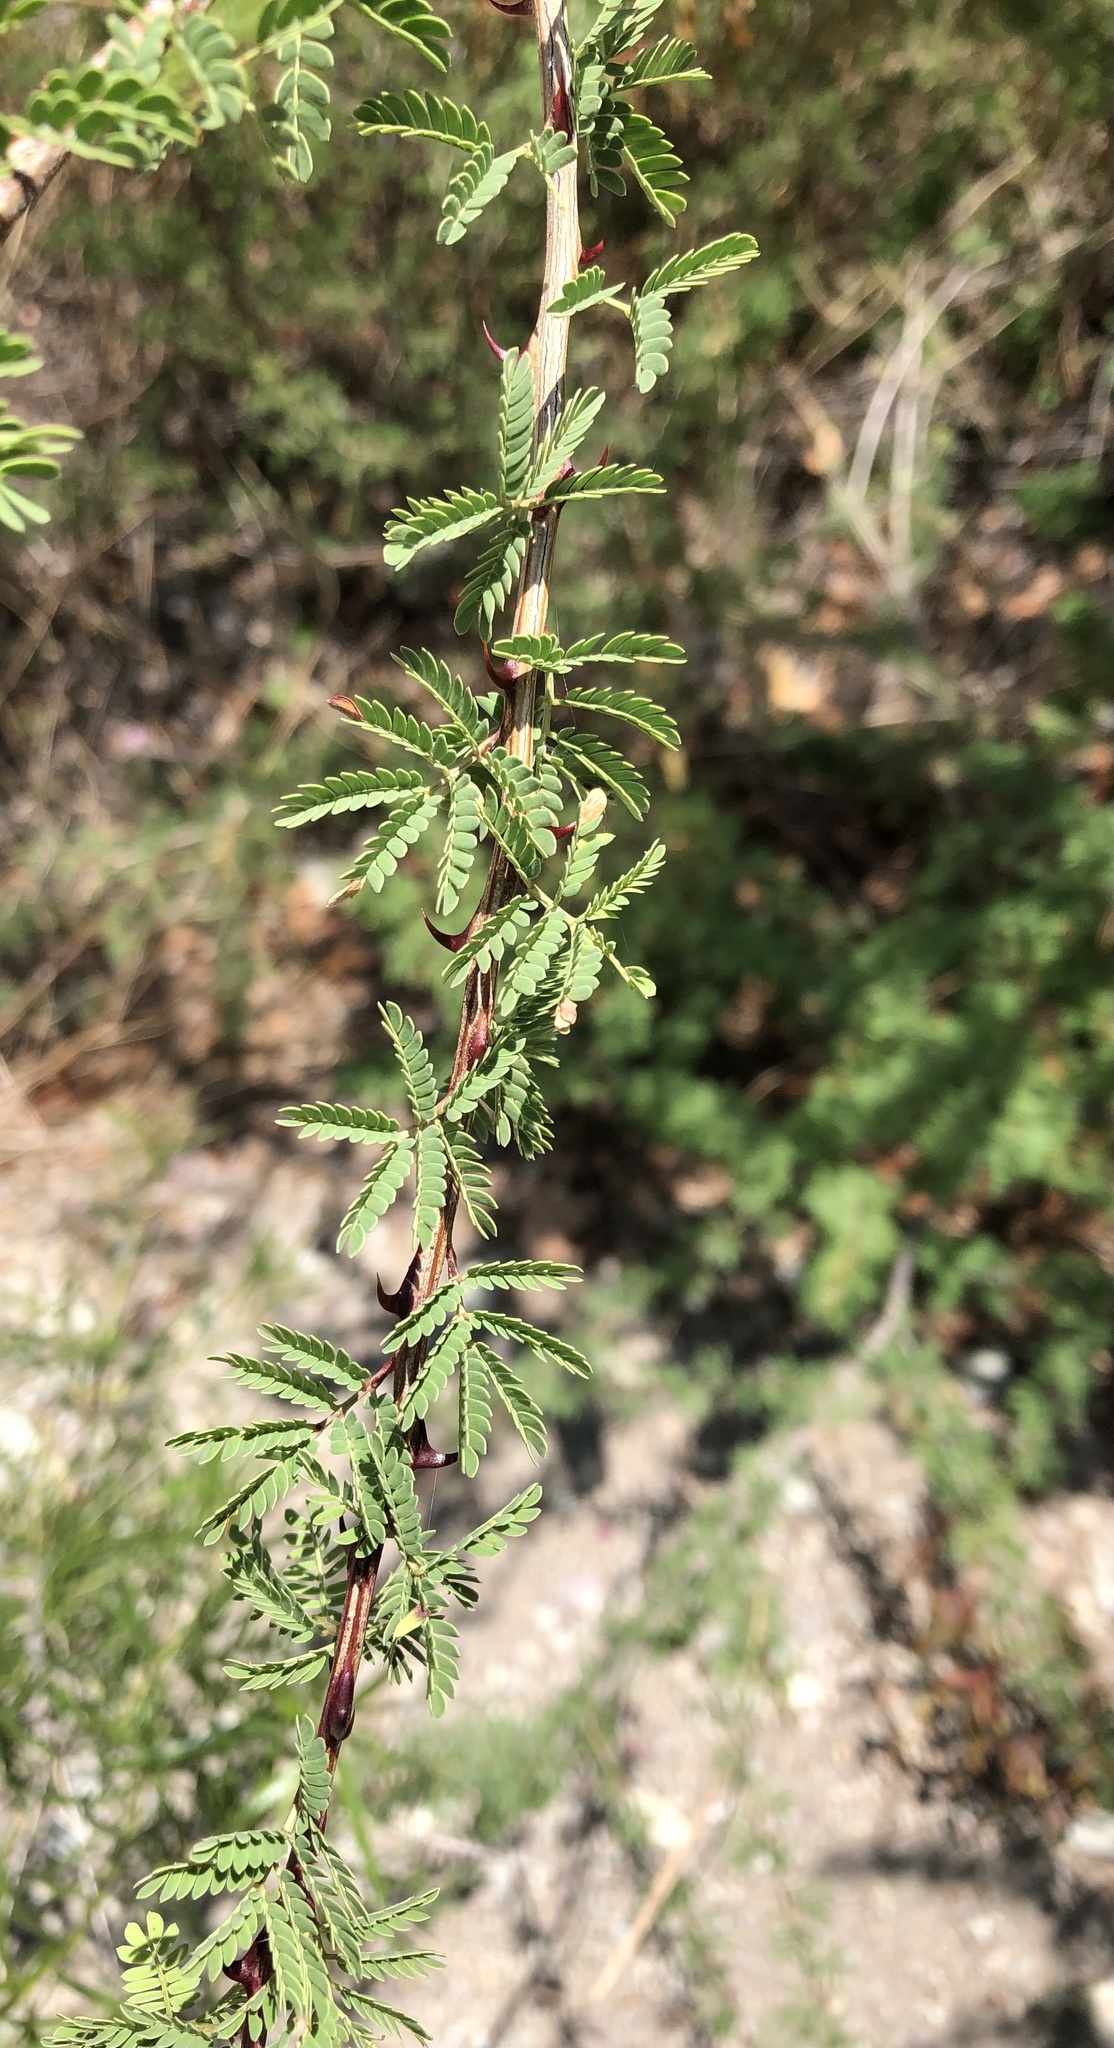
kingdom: Plantae
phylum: Tracheophyta
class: Magnoliopsida
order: Fabales
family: Fabaceae
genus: Senegalia
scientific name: Senegalia greggii
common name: Texas-mimosa
